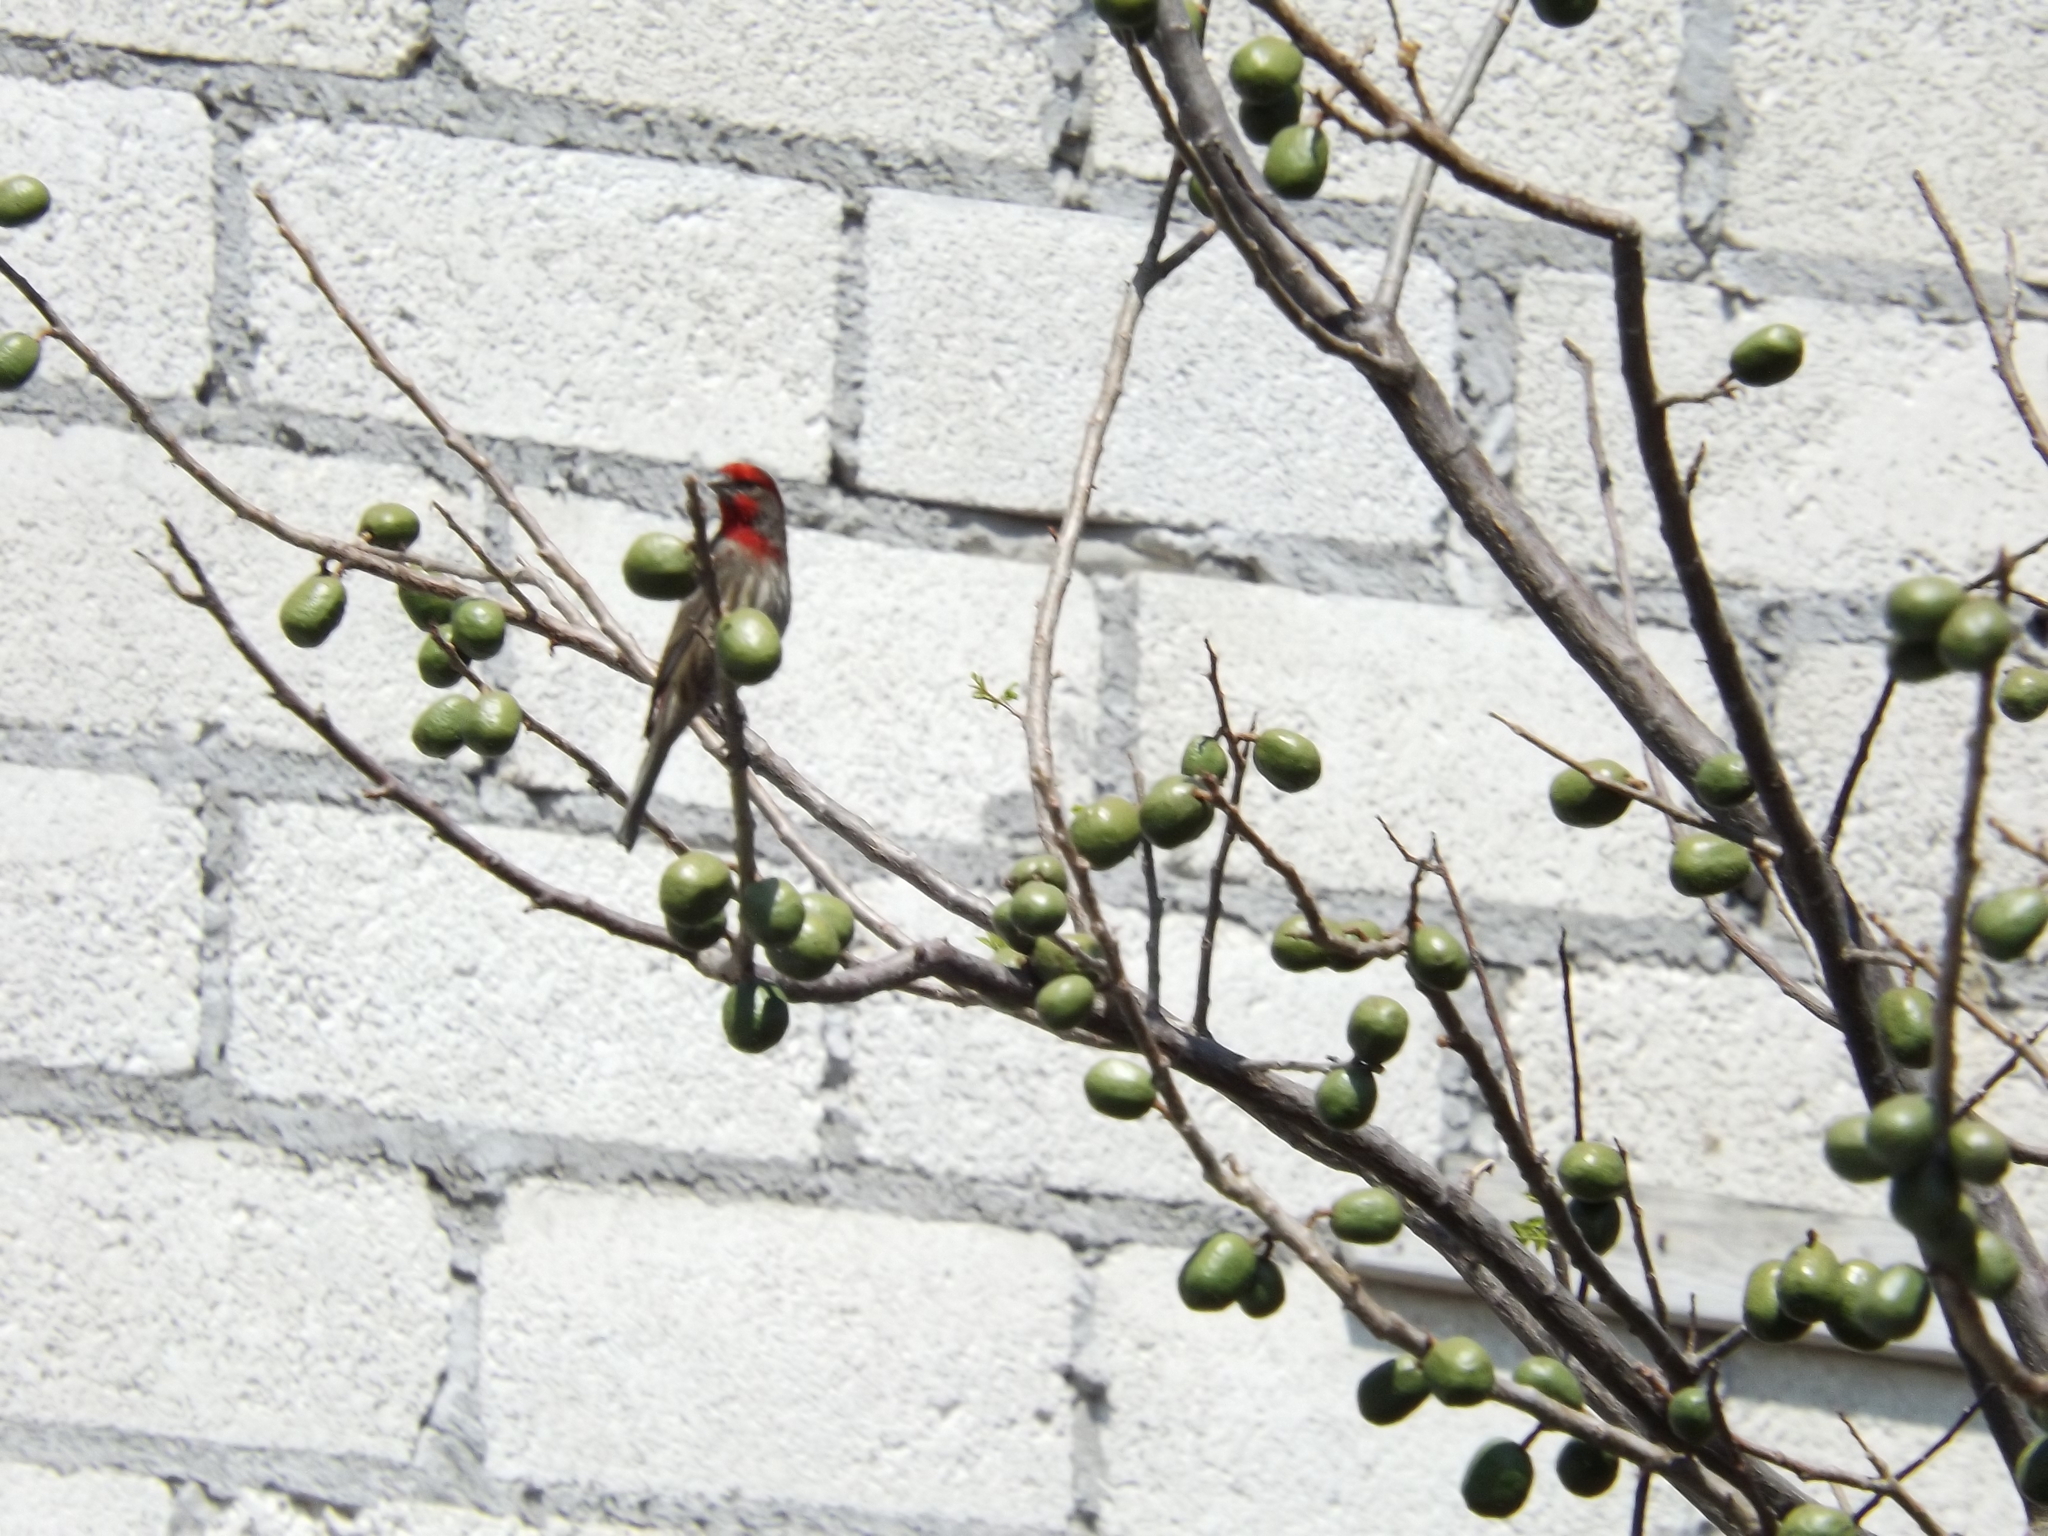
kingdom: Animalia
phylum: Chordata
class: Aves
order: Passeriformes
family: Fringillidae
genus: Haemorhous
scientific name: Haemorhous mexicanus
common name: House finch
